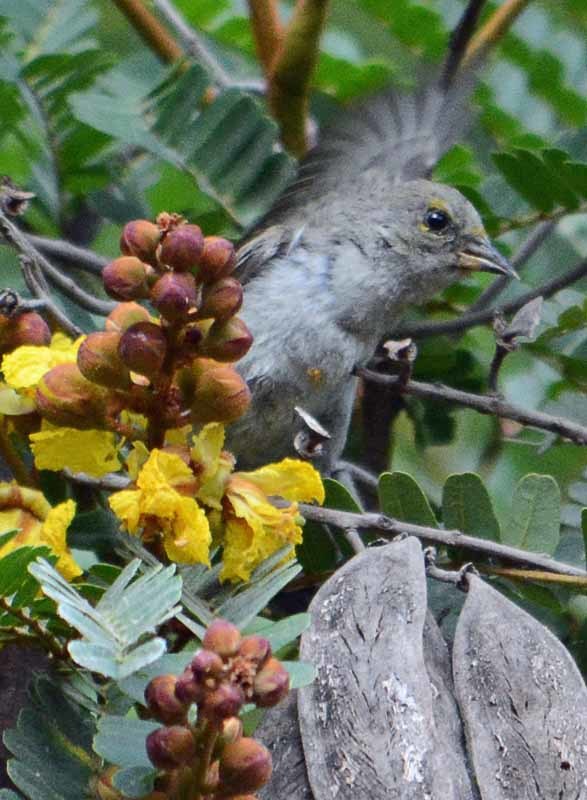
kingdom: Animalia
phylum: Chordata
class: Aves
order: Passeriformes
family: Remizidae
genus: Auriparus
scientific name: Auriparus flaviceps
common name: Verdin
